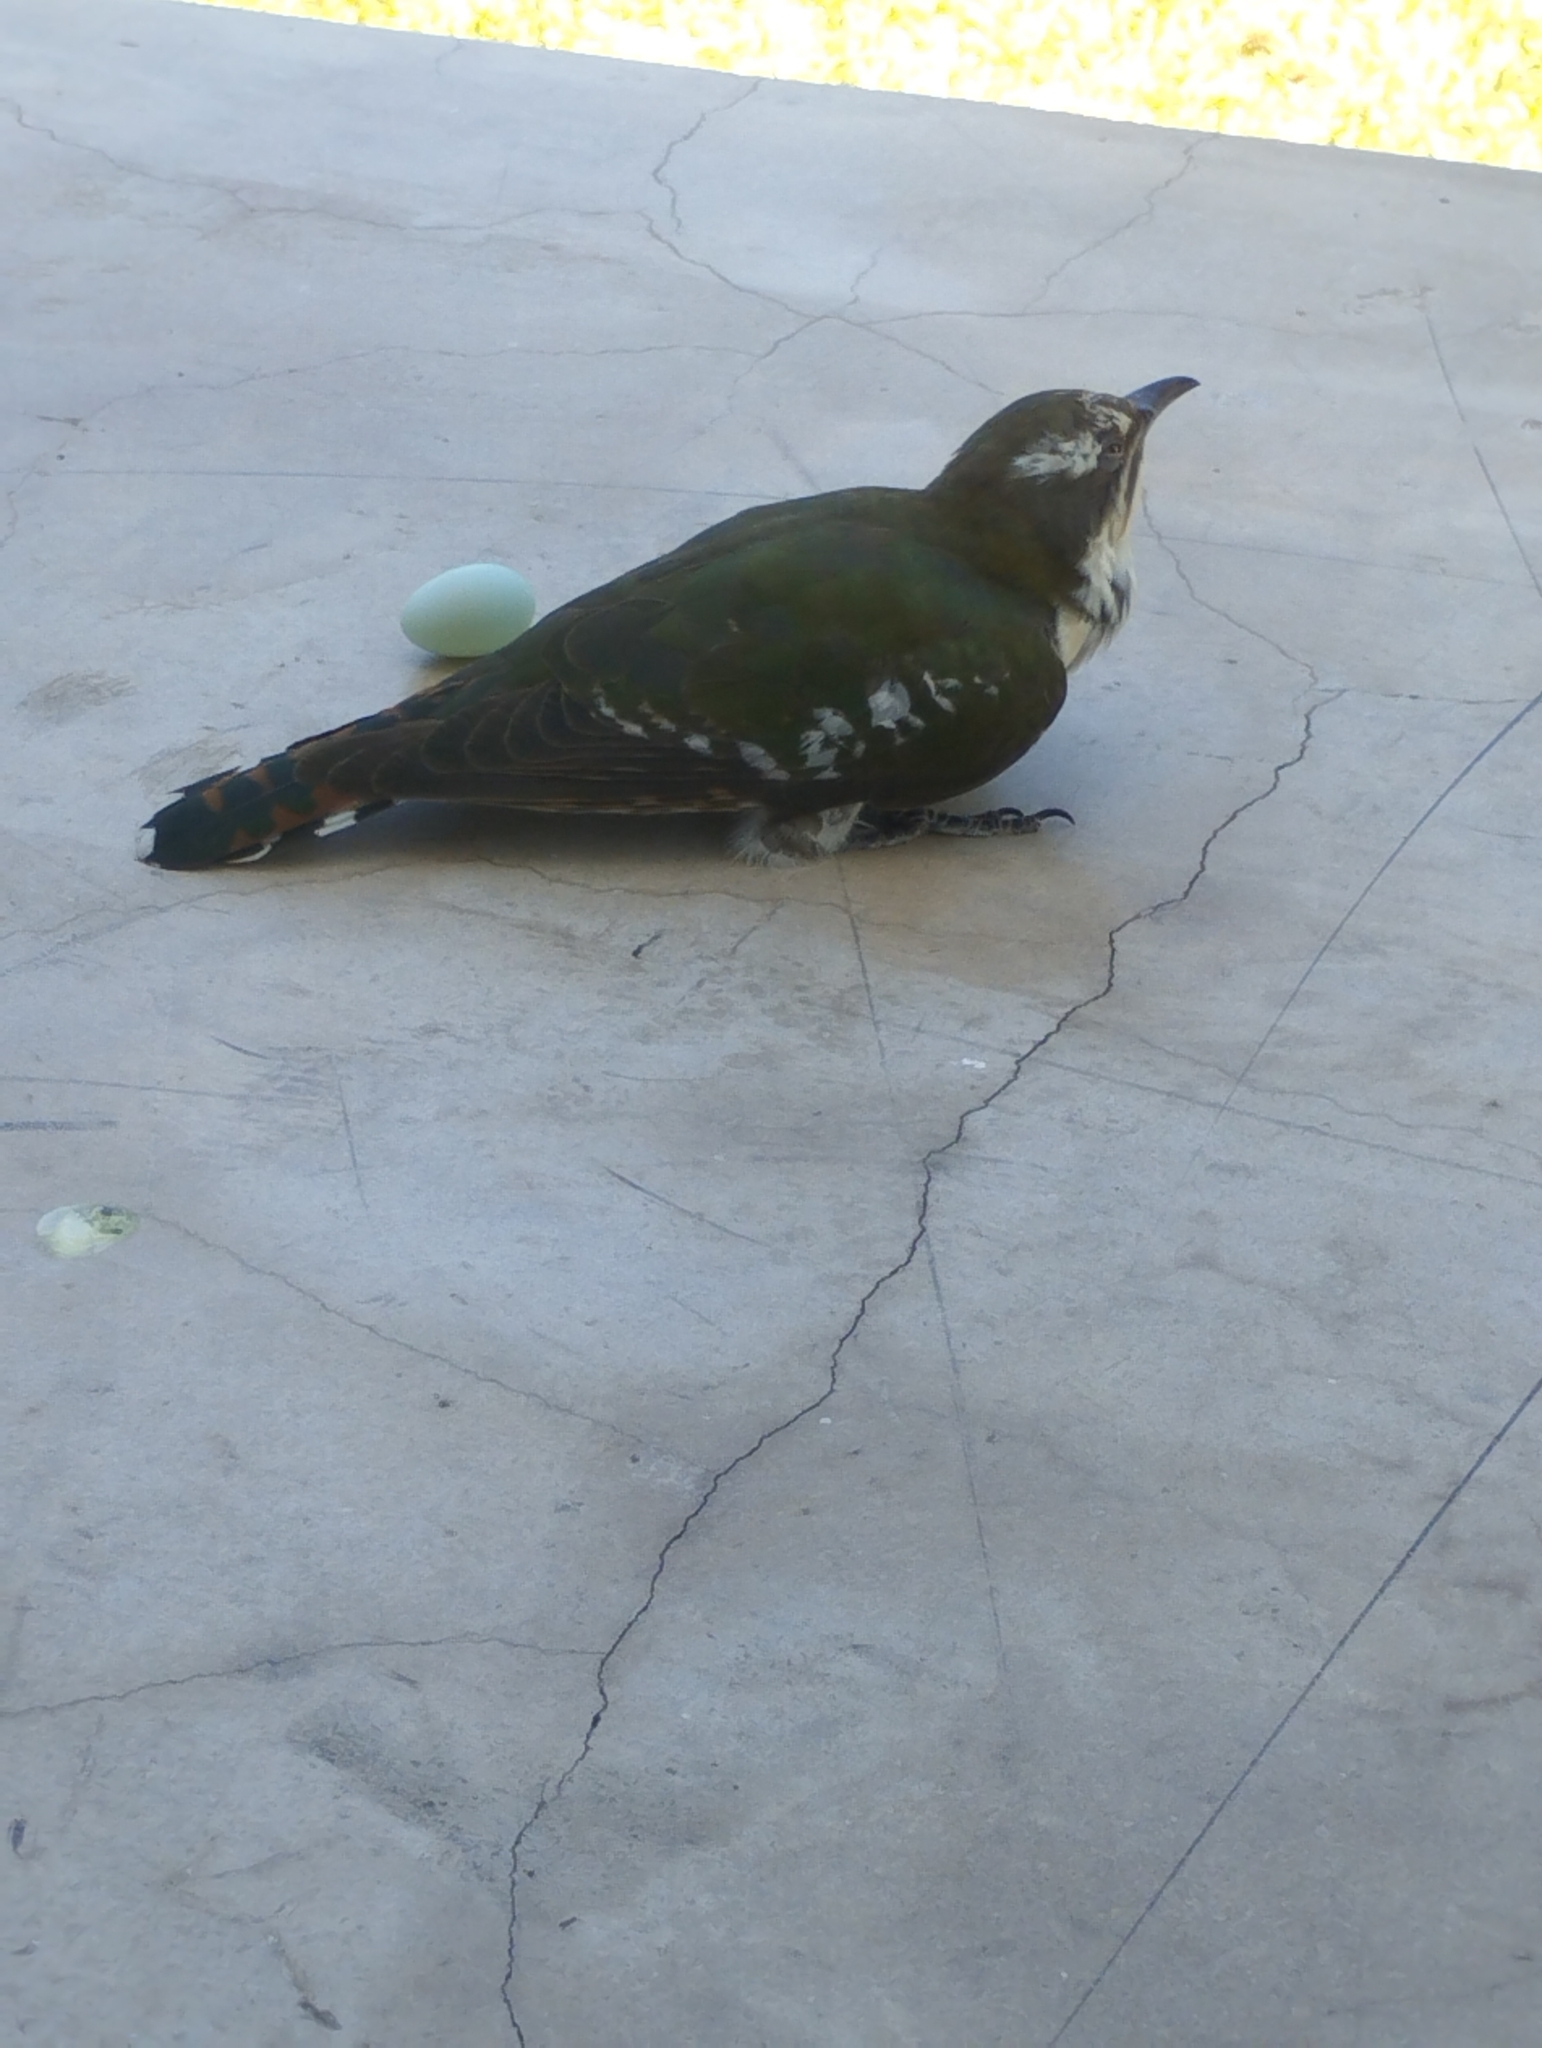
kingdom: Animalia
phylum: Chordata
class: Aves
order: Cuculiformes
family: Cuculidae
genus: Chrysococcyx
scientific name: Chrysococcyx caprius
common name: Diederik cuckoo
